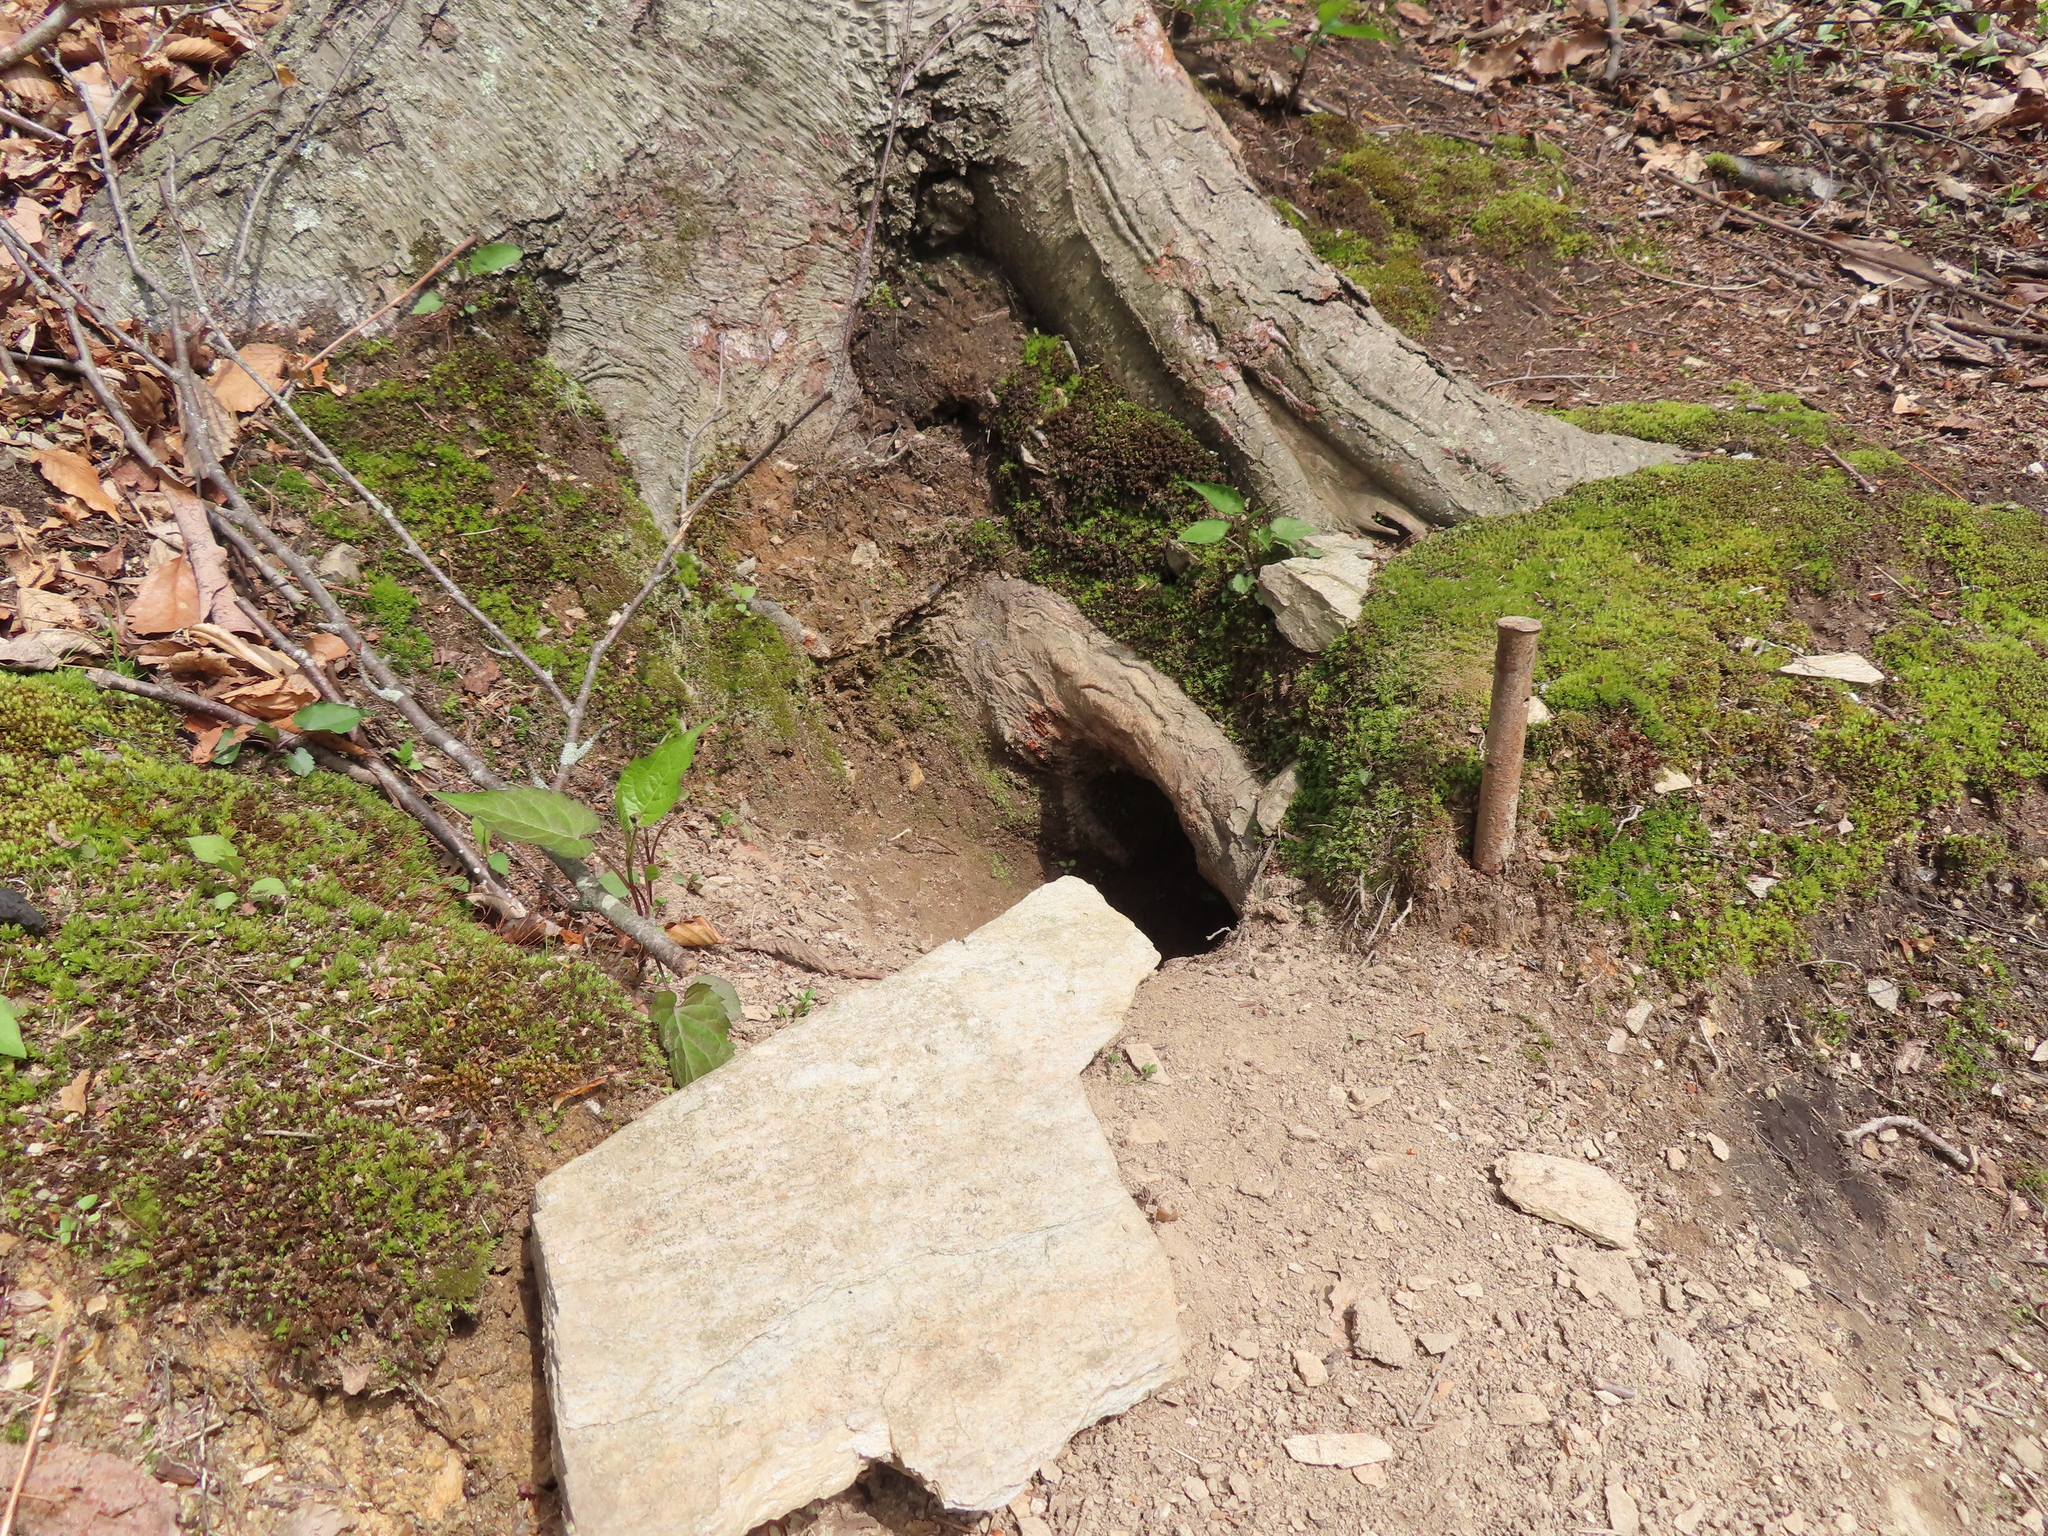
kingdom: Animalia
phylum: Chordata
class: Mammalia
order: Rodentia
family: Sciuridae
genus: Marmota
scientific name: Marmota monax
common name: Groundhog
